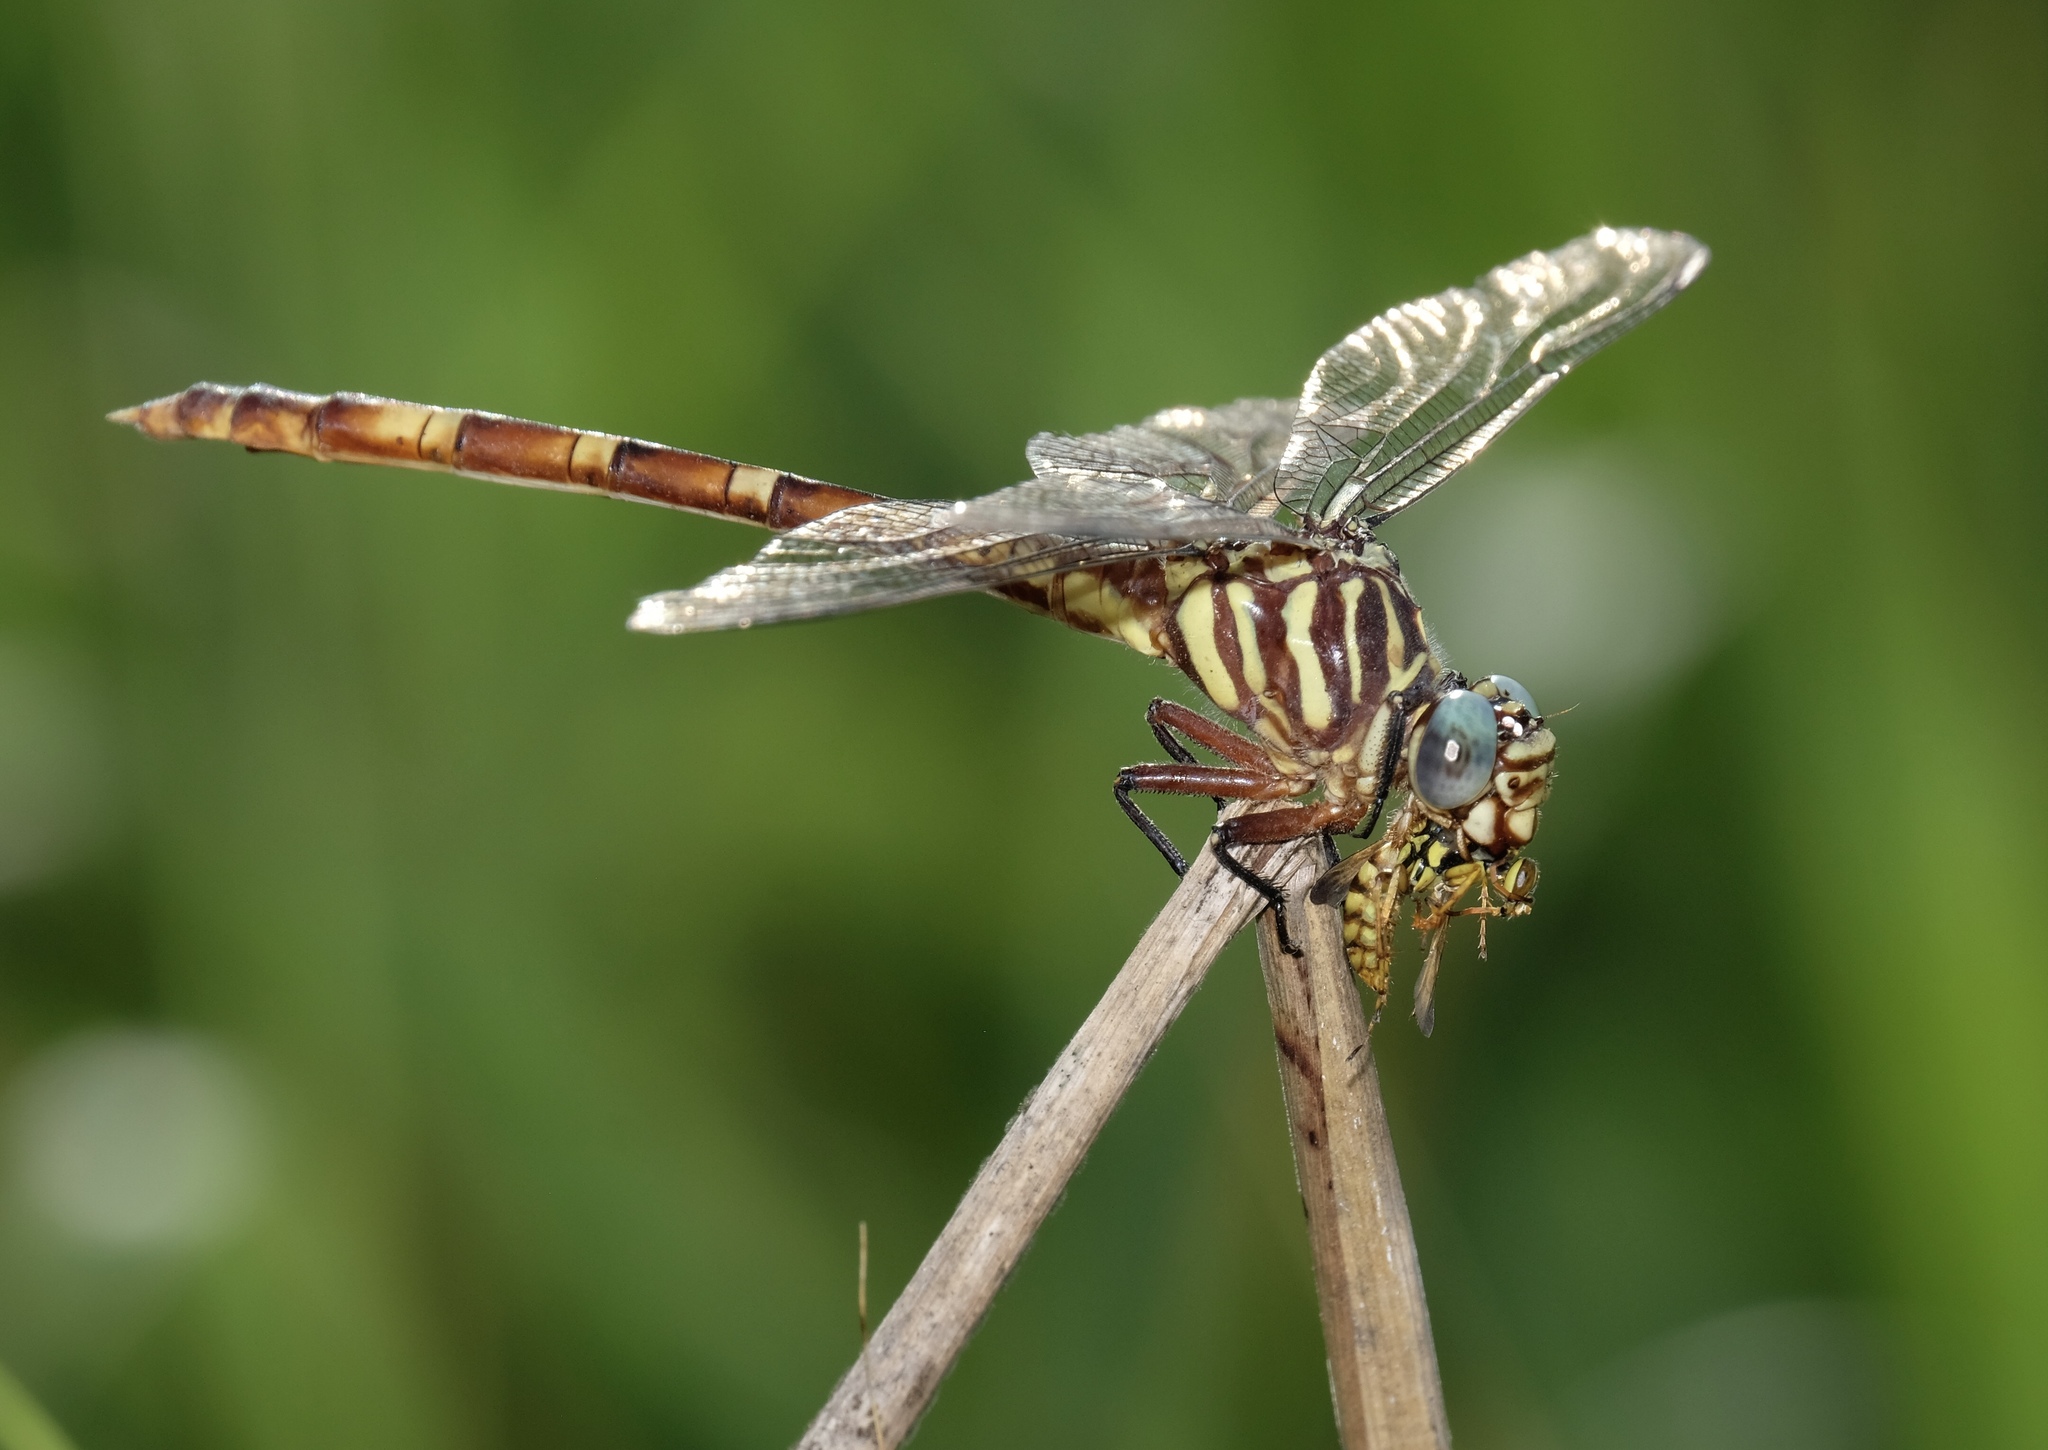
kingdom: Animalia
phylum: Arthropoda
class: Insecta
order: Odonata
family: Gomphidae
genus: Aphylla
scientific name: Aphylla angustifolia
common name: Broad-striped forceptail
